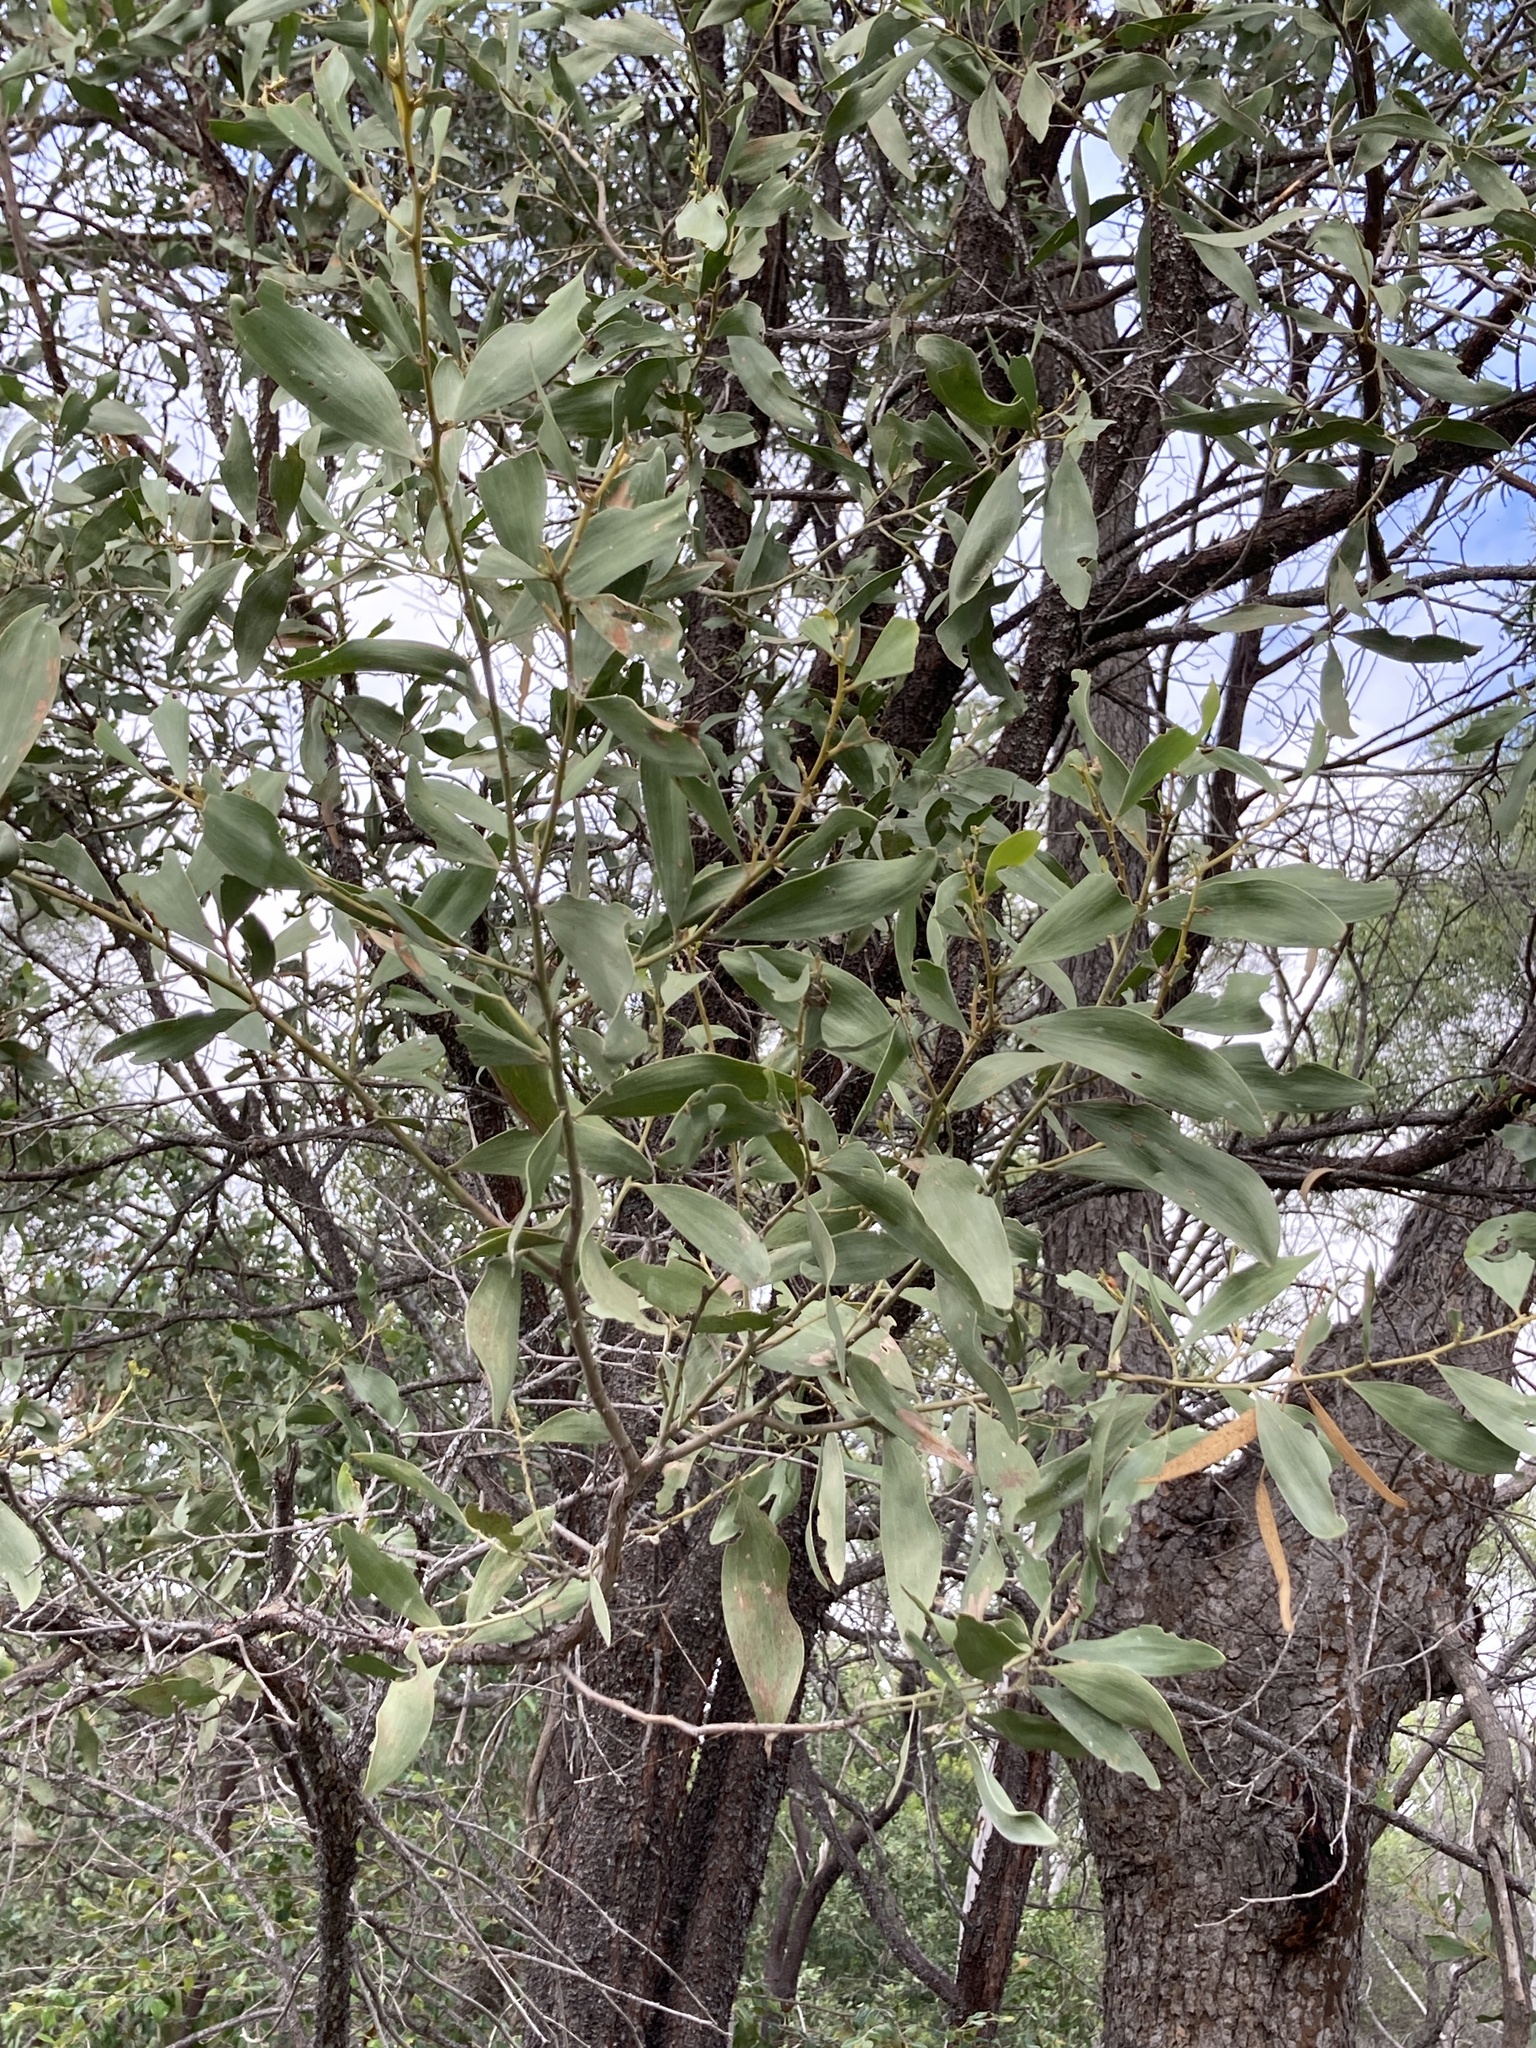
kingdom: Plantae
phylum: Tracheophyta
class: Magnoliopsida
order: Fabales
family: Fabaceae
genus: Acacia
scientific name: Acacia rhodoxylon
